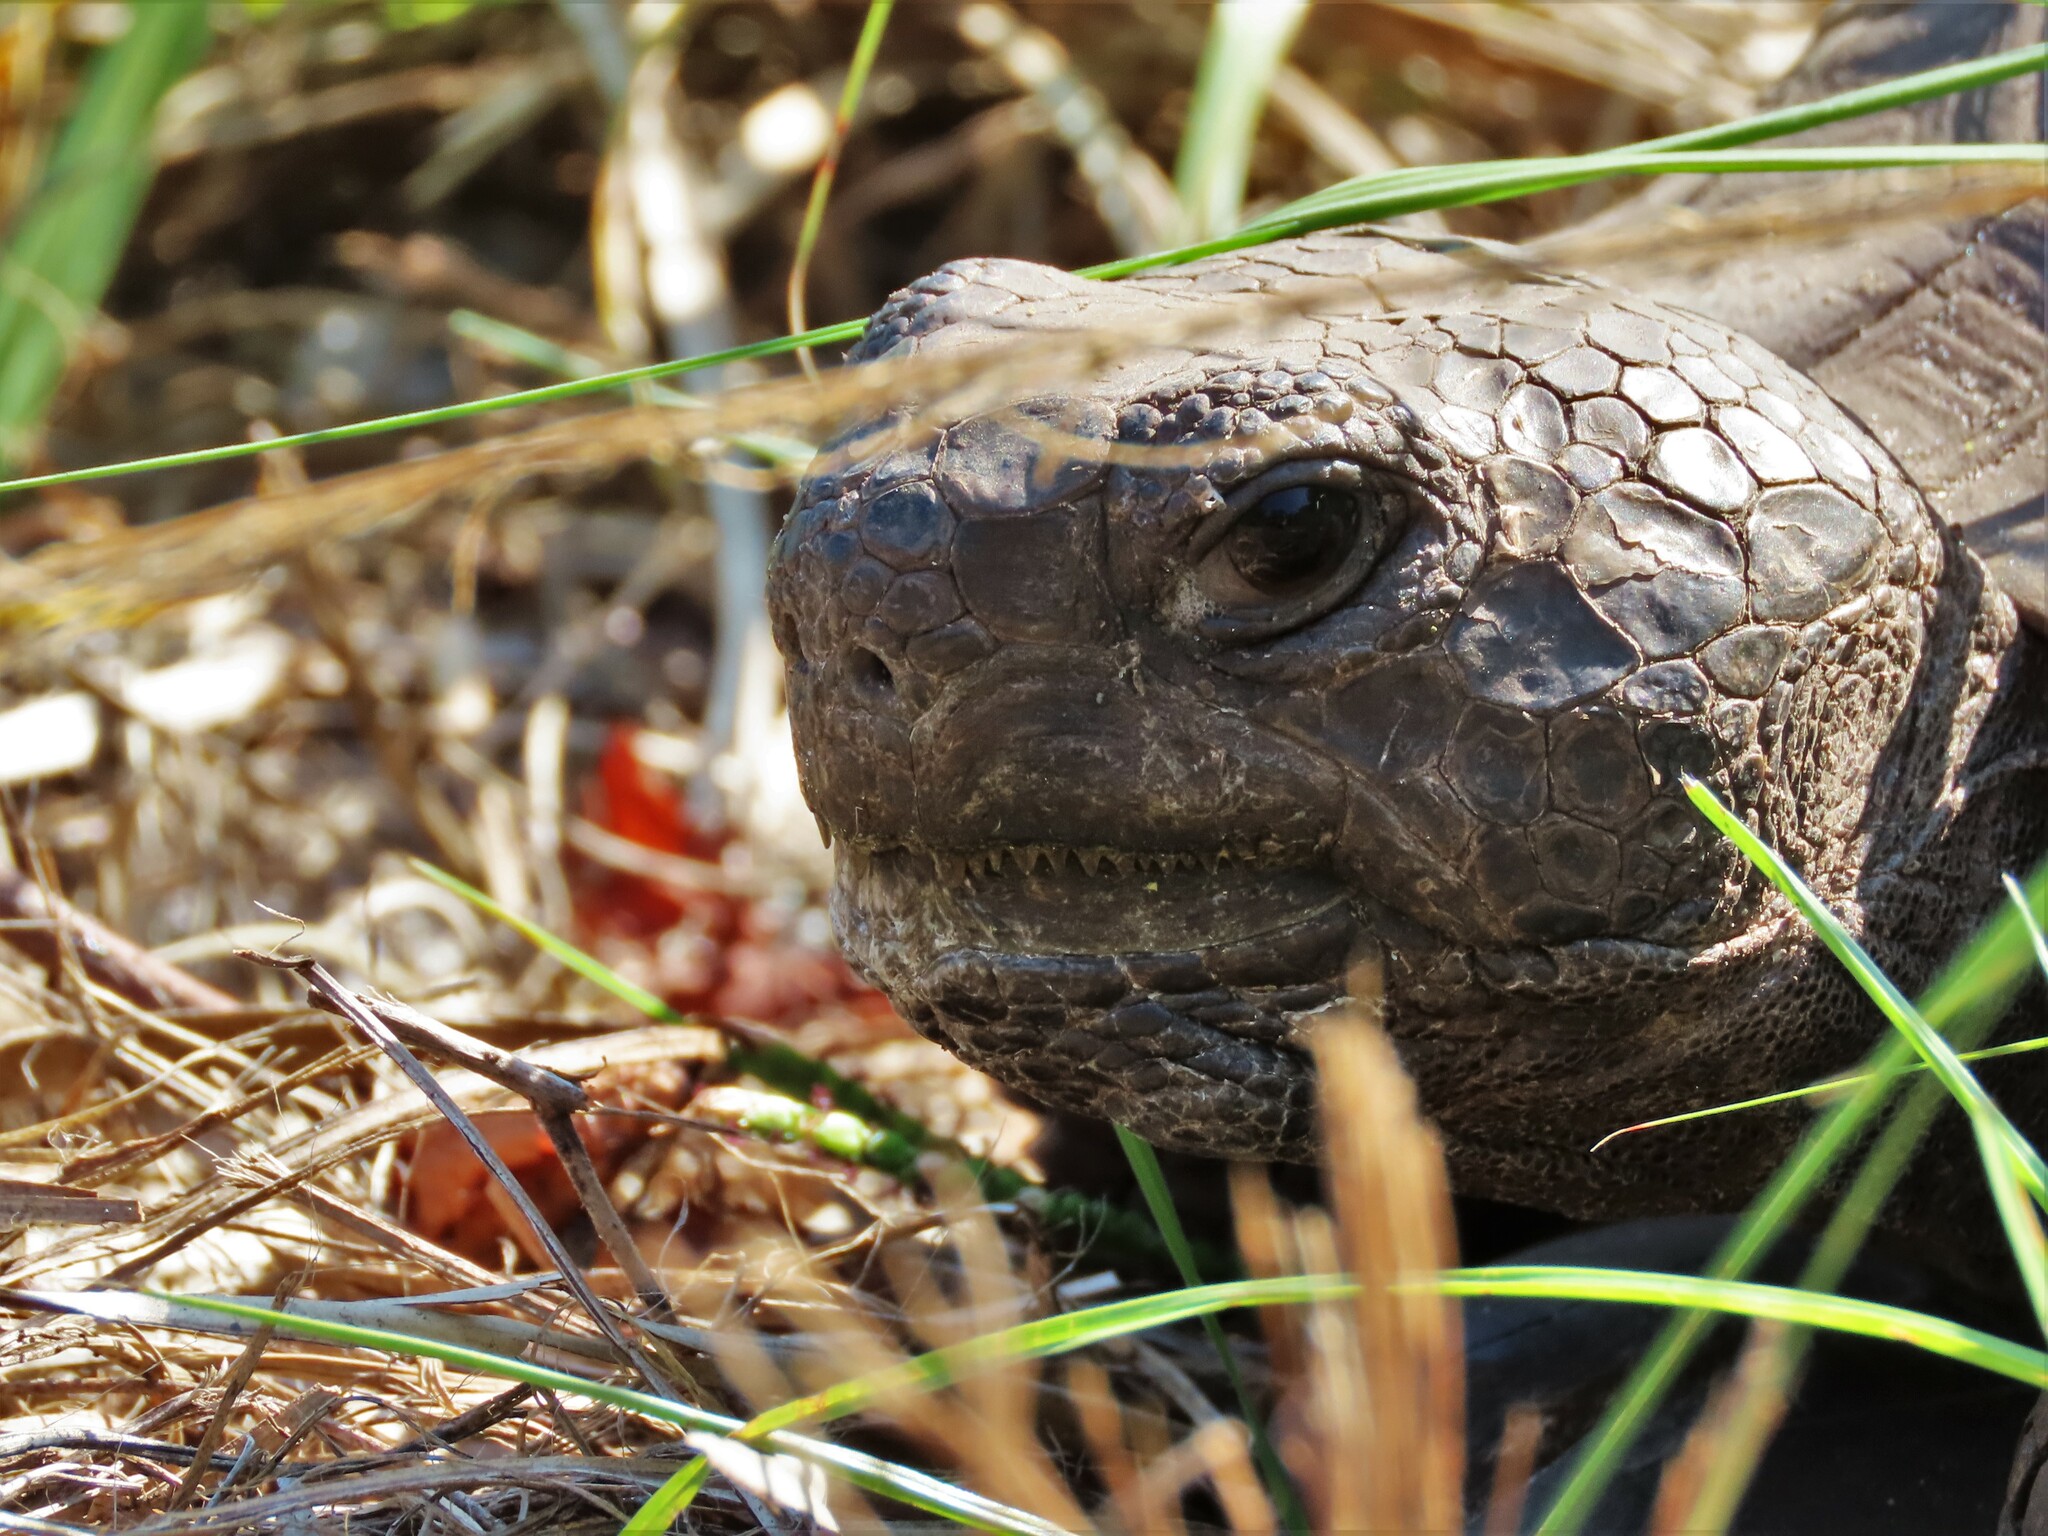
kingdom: Animalia
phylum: Chordata
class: Testudines
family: Testudinidae
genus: Gopherus
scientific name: Gopherus polyphemus
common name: Florida gopher tortoise
